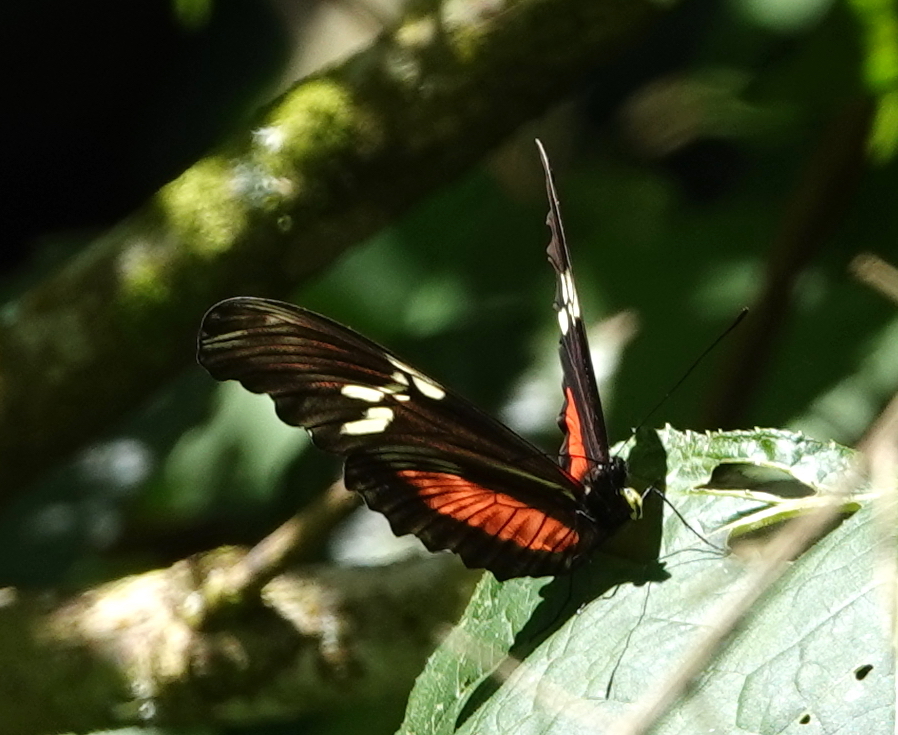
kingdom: Animalia
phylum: Arthropoda
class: Insecta
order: Lepidoptera
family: Nymphalidae
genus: Heliconius
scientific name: Heliconius hortense
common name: Mexican longwing
